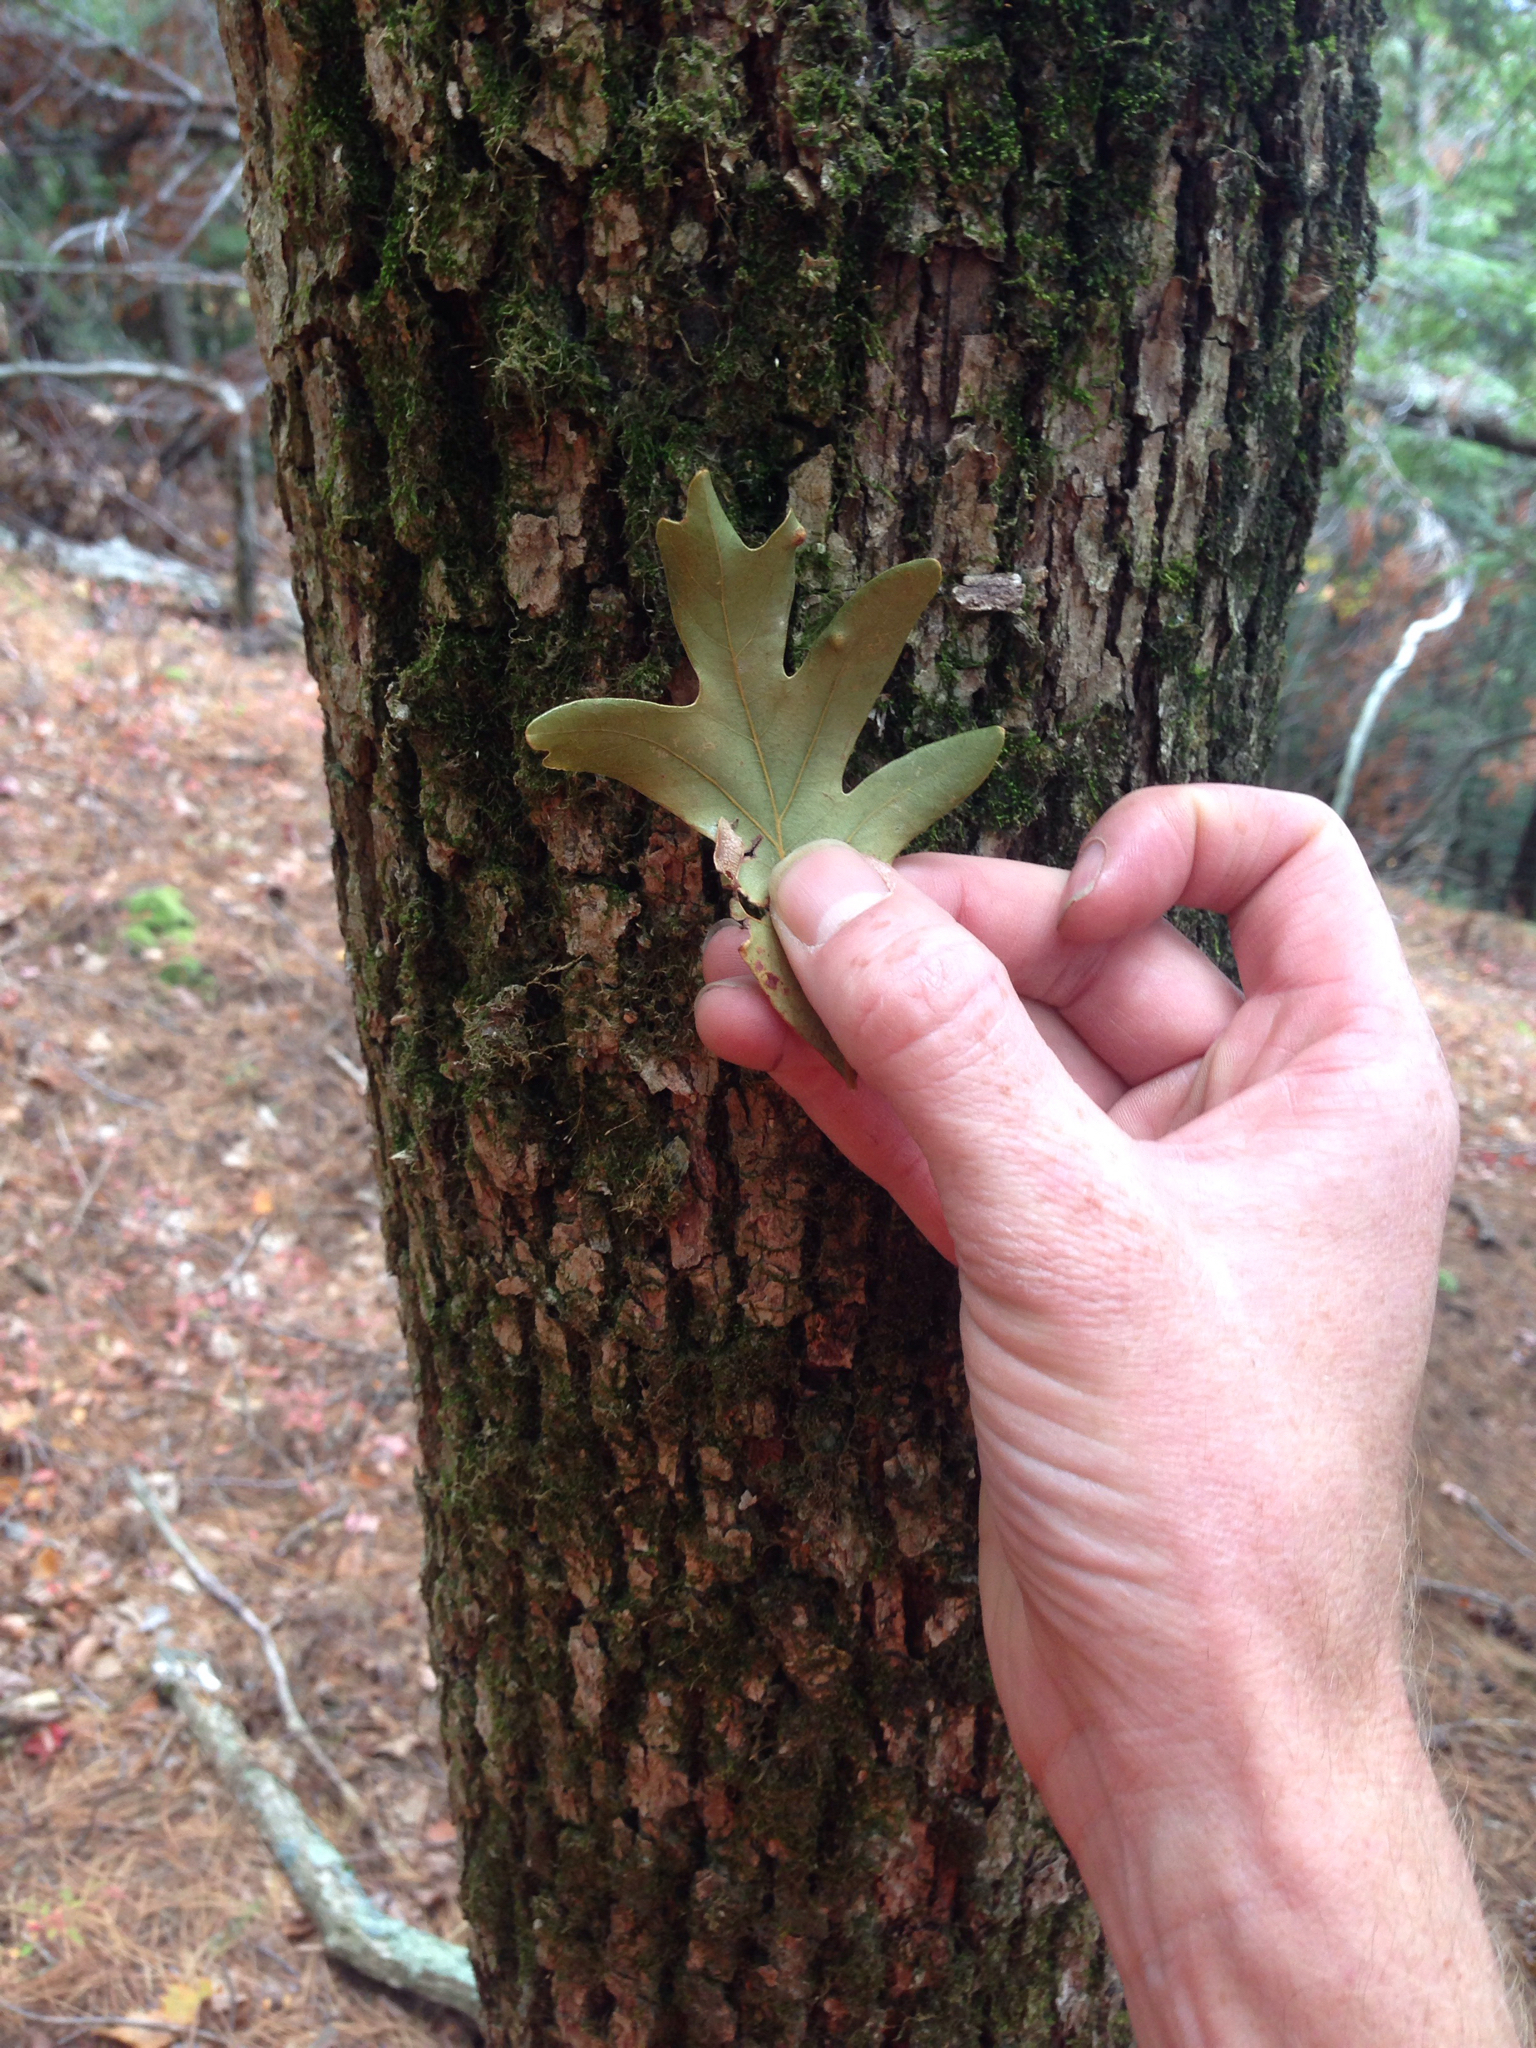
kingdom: Plantae
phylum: Tracheophyta
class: Magnoliopsida
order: Fagales
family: Fagaceae
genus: Quercus
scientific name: Quercus alba
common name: White oak
